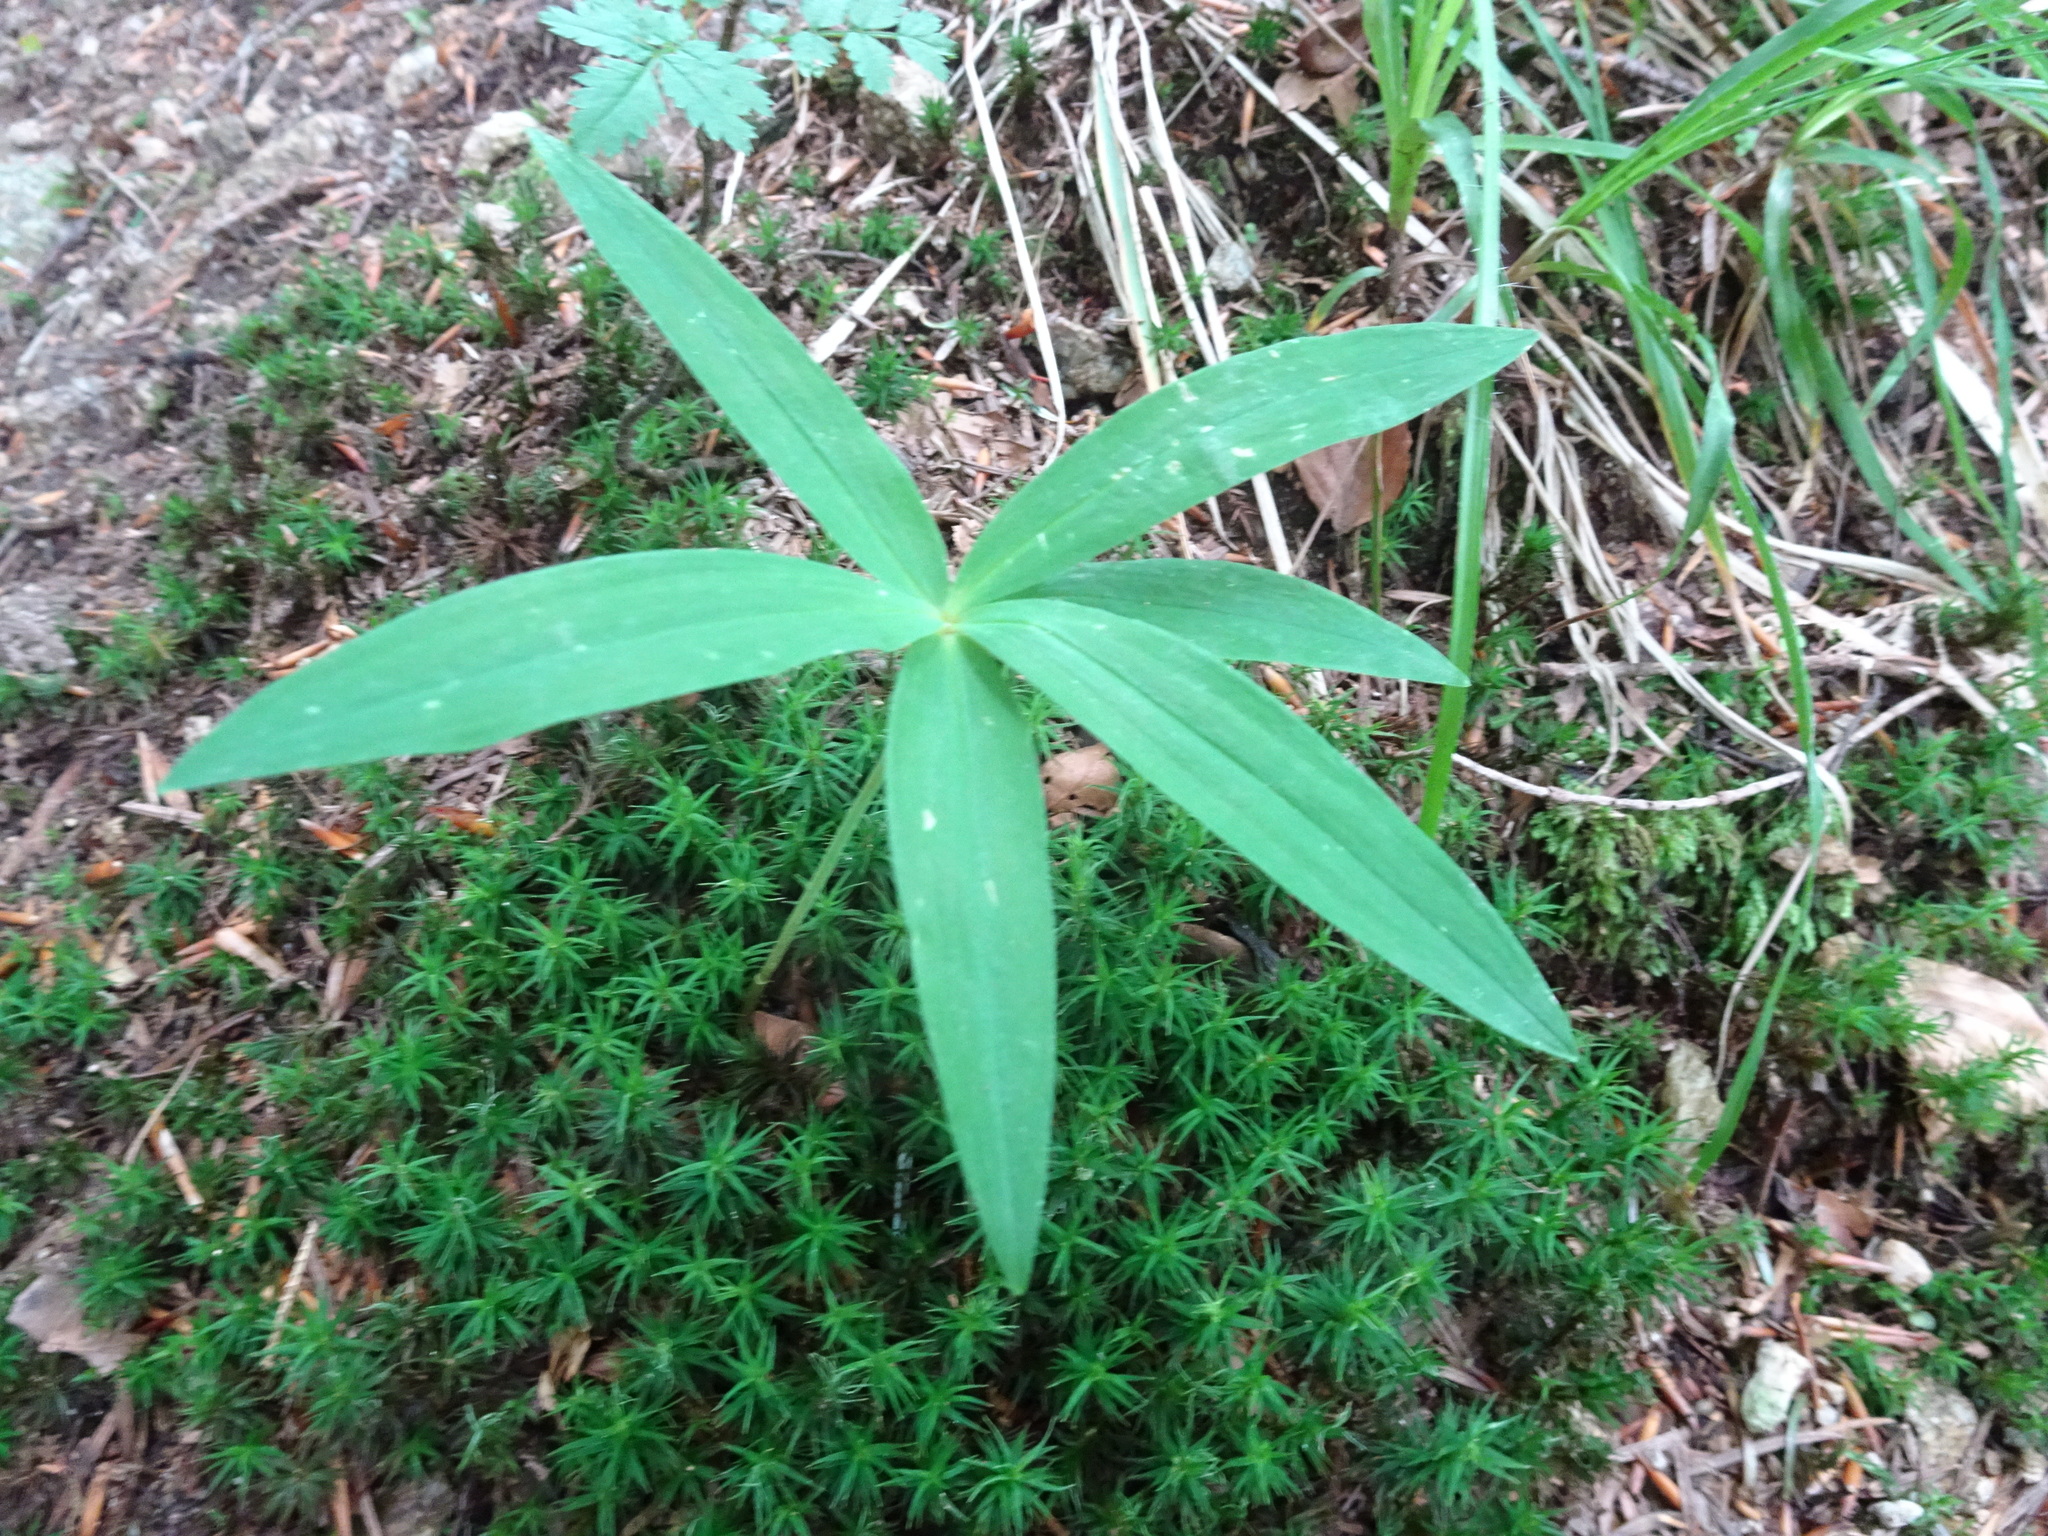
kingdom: Plantae
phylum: Tracheophyta
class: Liliopsida
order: Asparagales
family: Asparagaceae
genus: Polygonatum
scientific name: Polygonatum verticillatum
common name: Whorled solomon's-seal
